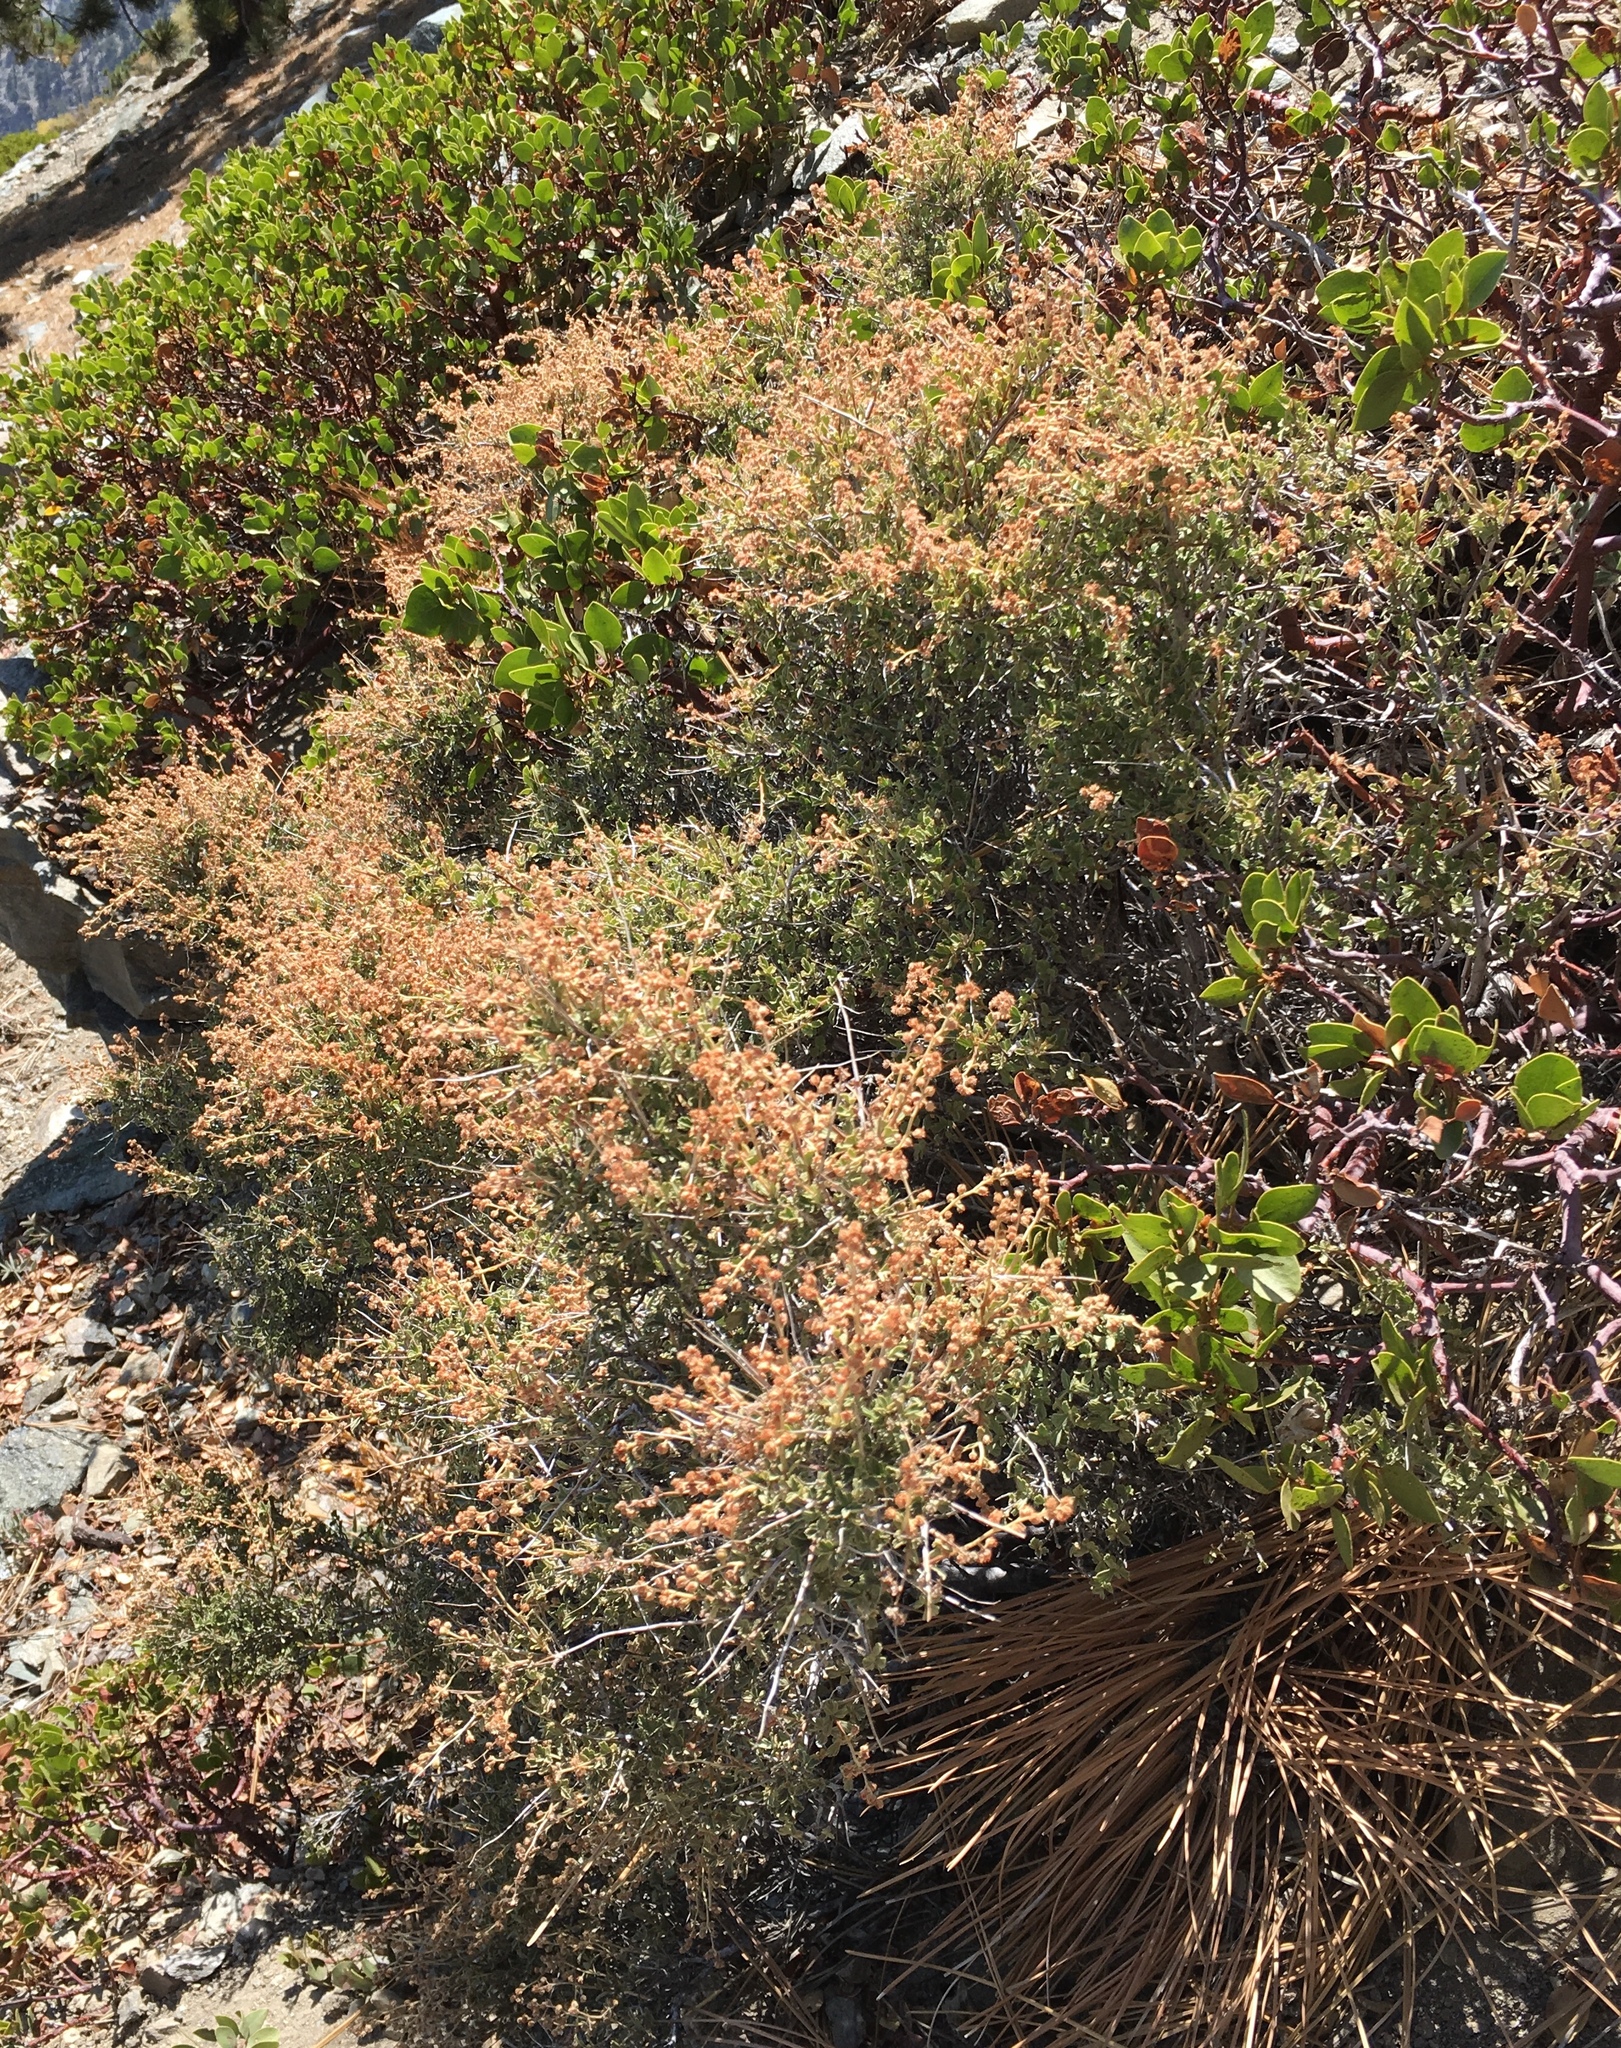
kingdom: Plantae
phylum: Tracheophyta
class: Magnoliopsida
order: Rosales
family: Rosaceae
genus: Holodiscus
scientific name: Holodiscus discolor
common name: Oceanspray
